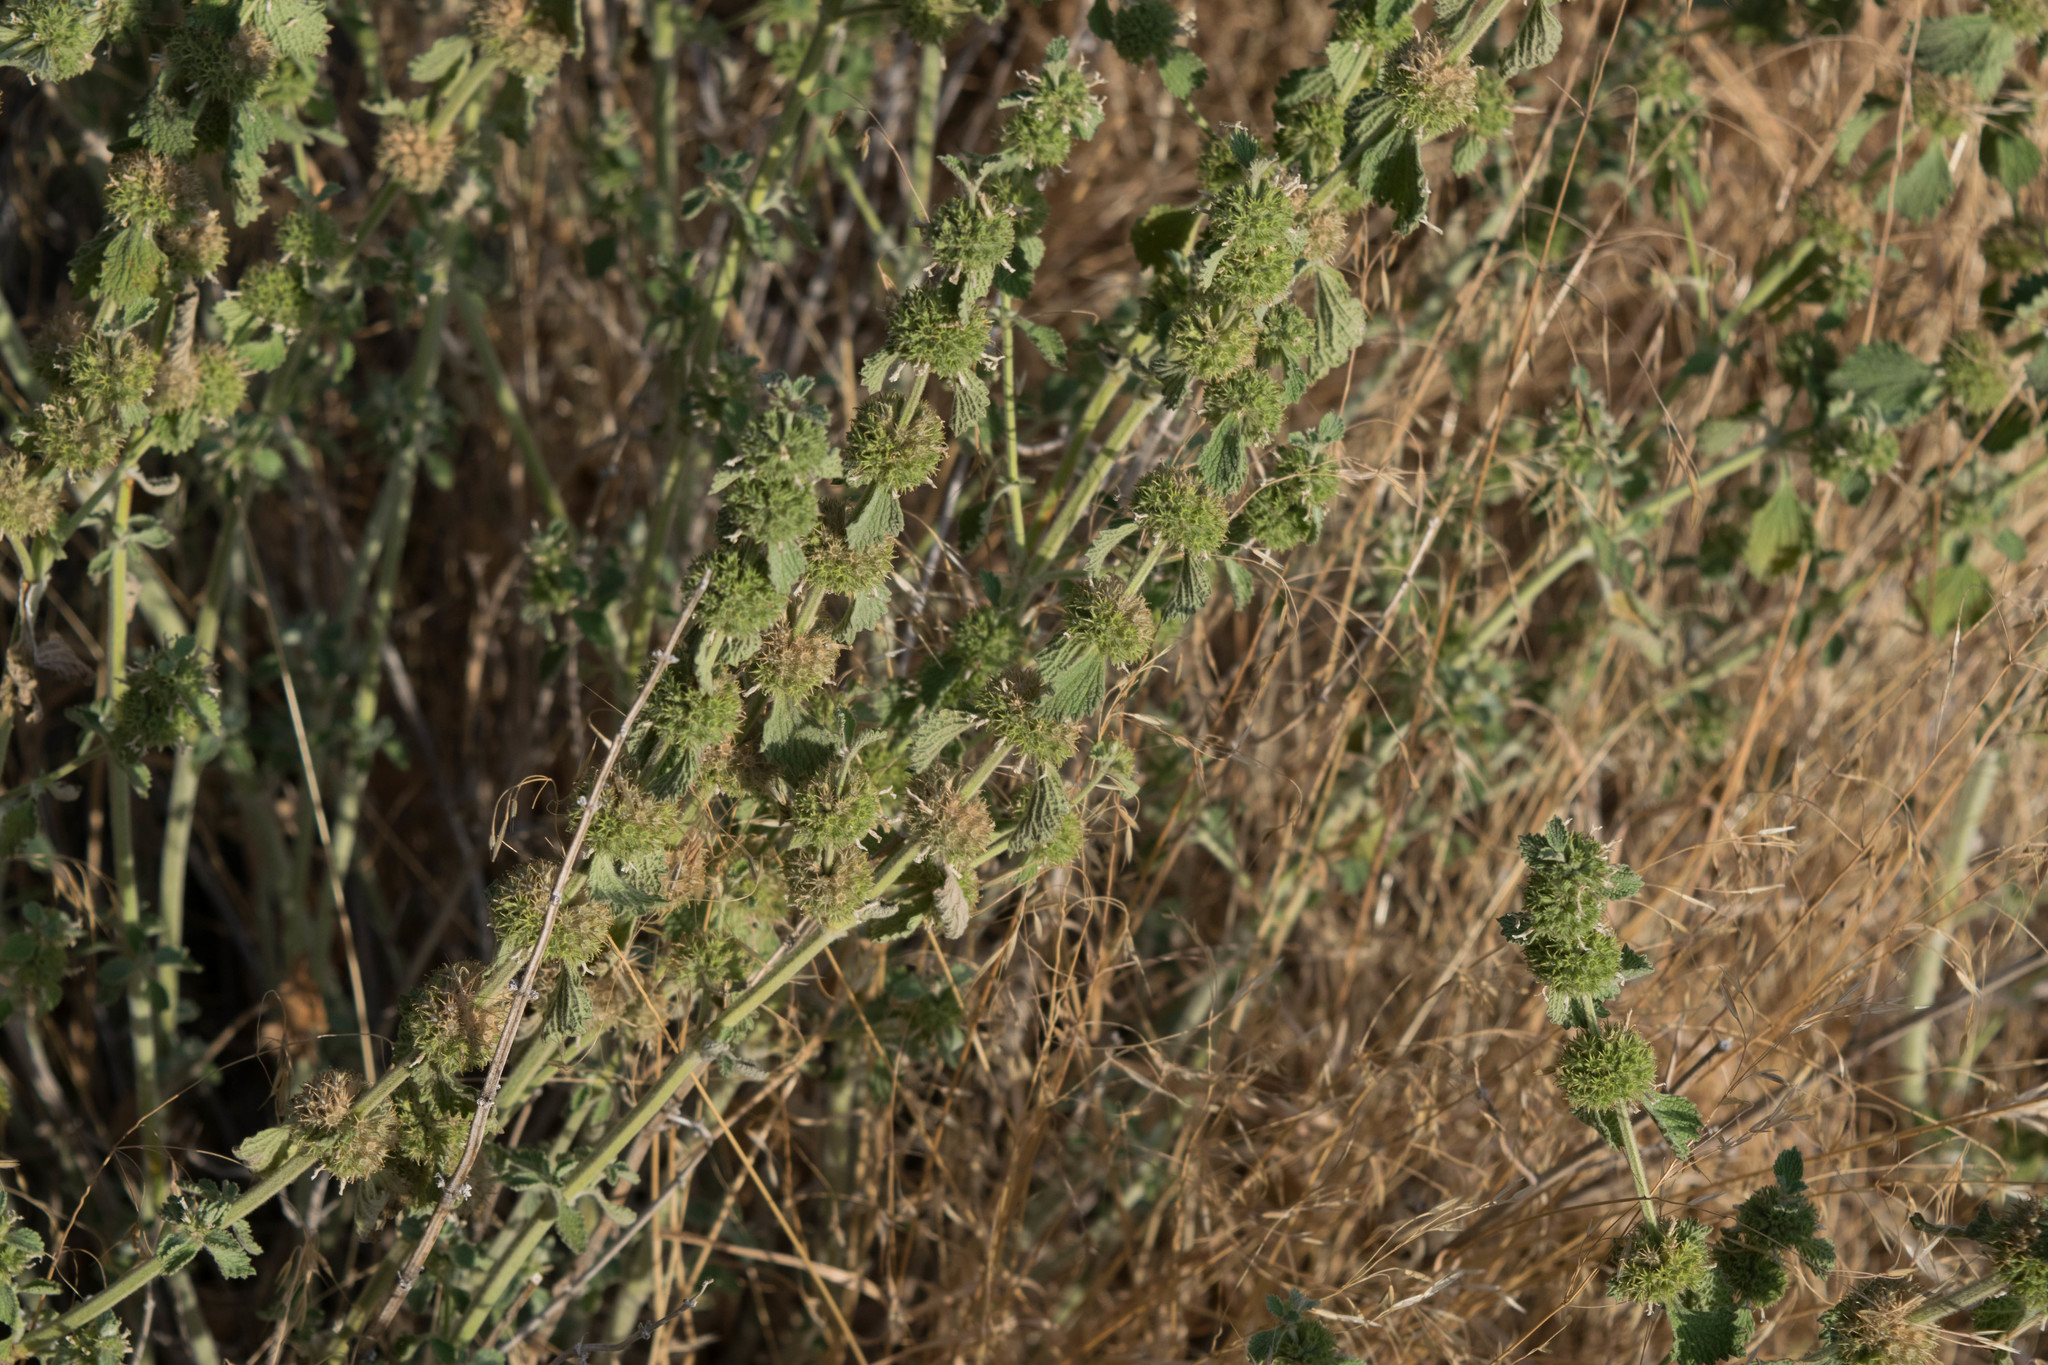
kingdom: Plantae
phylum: Tracheophyta
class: Magnoliopsida
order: Lamiales
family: Lamiaceae
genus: Marrubium
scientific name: Marrubium vulgare
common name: Horehound
